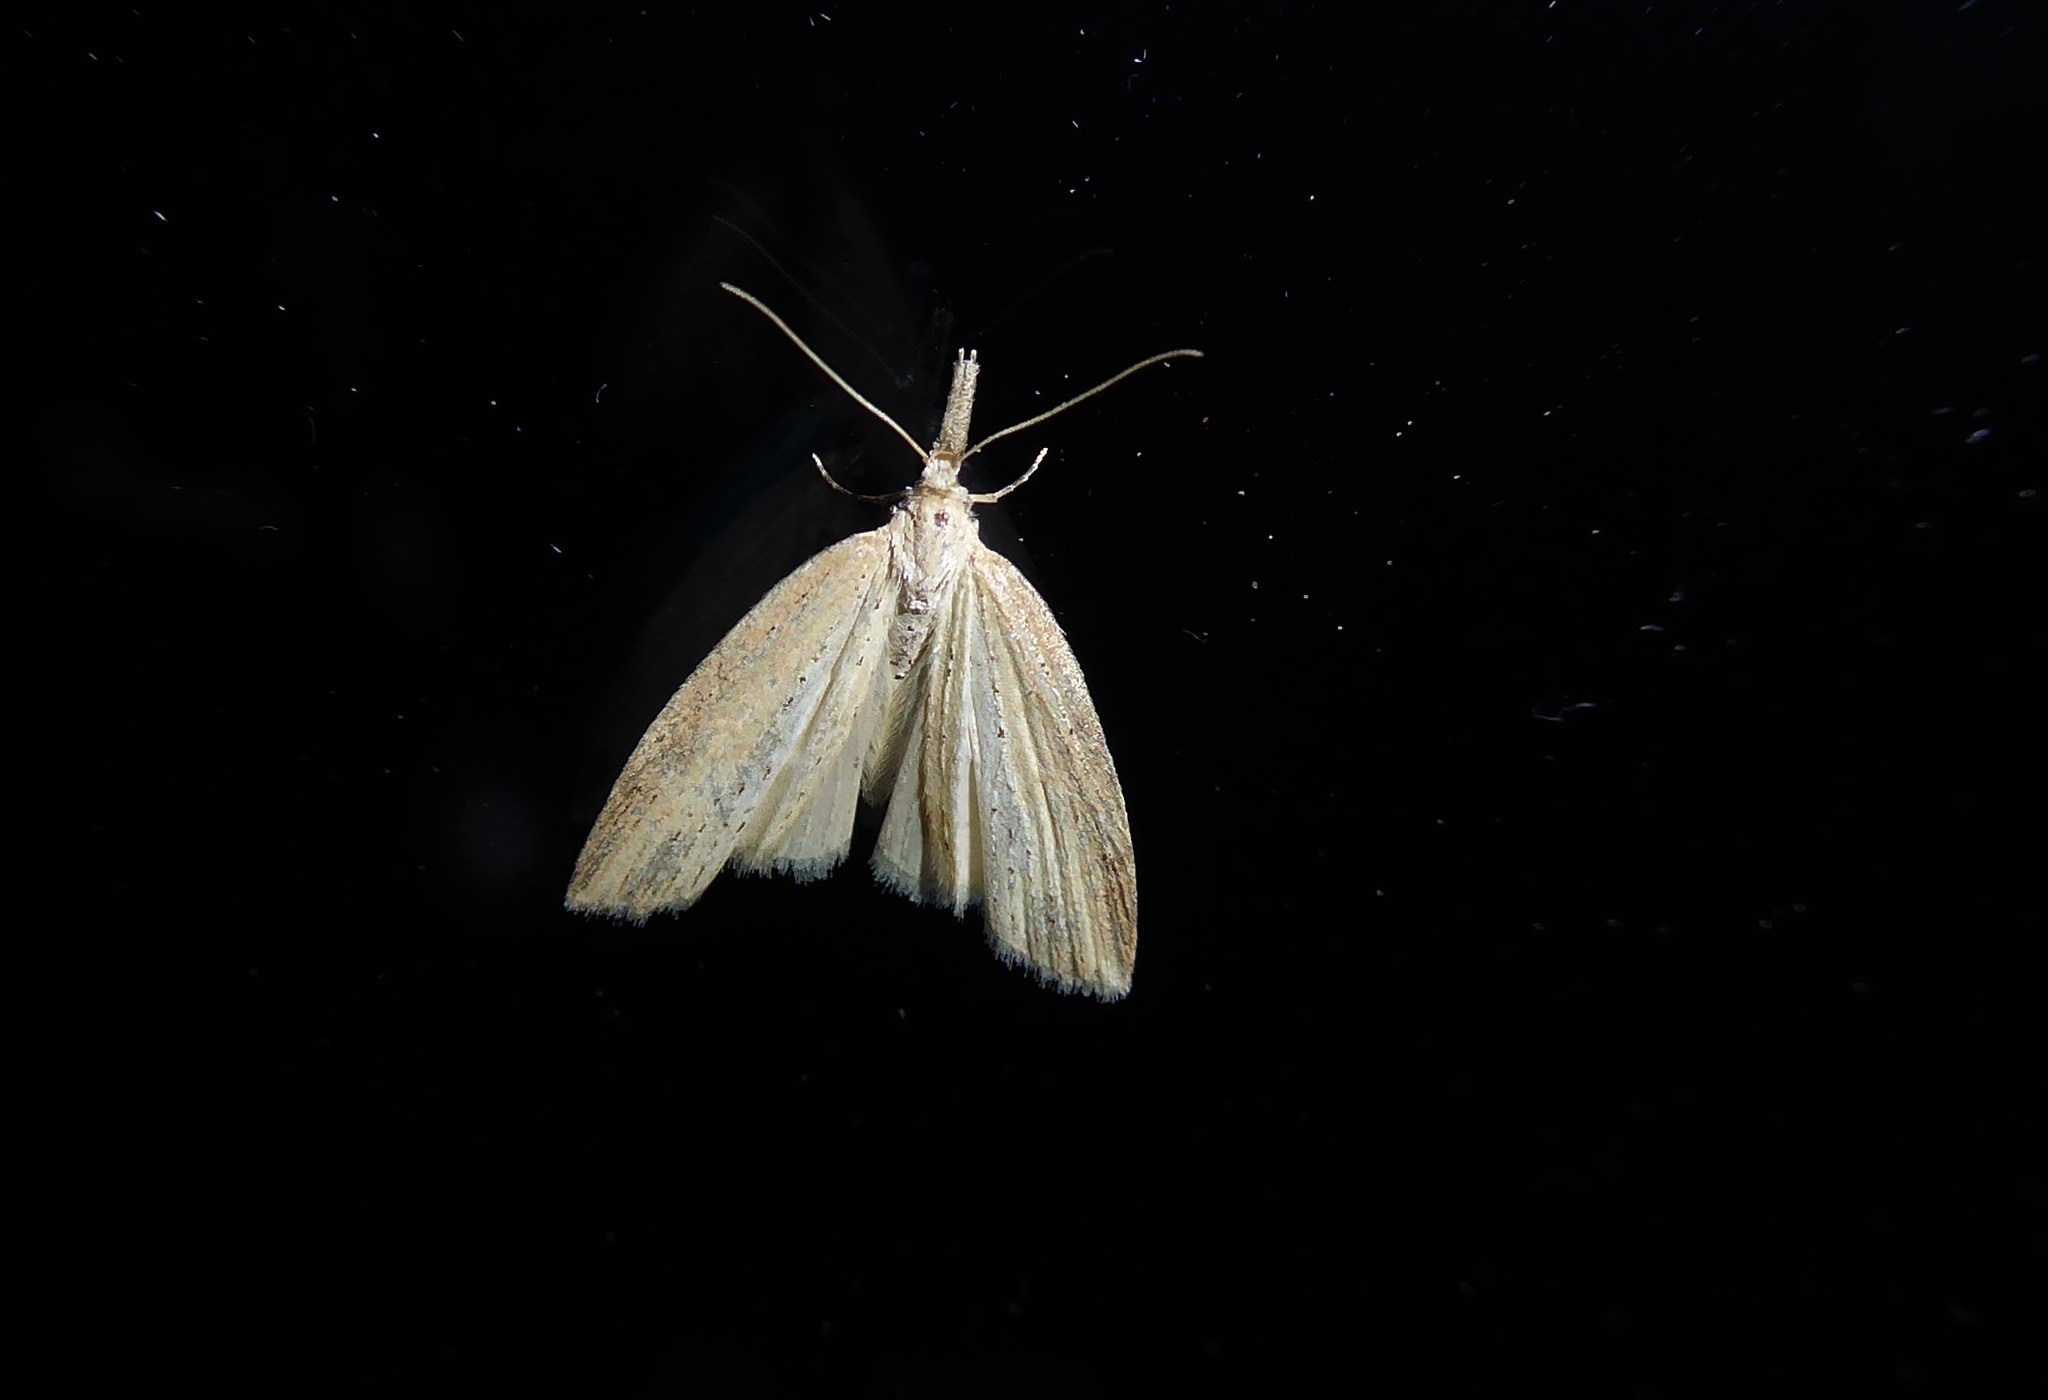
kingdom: Animalia
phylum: Arthropoda
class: Insecta
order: Lepidoptera
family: Geometridae
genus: Microdes
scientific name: Microdes epicryptis
